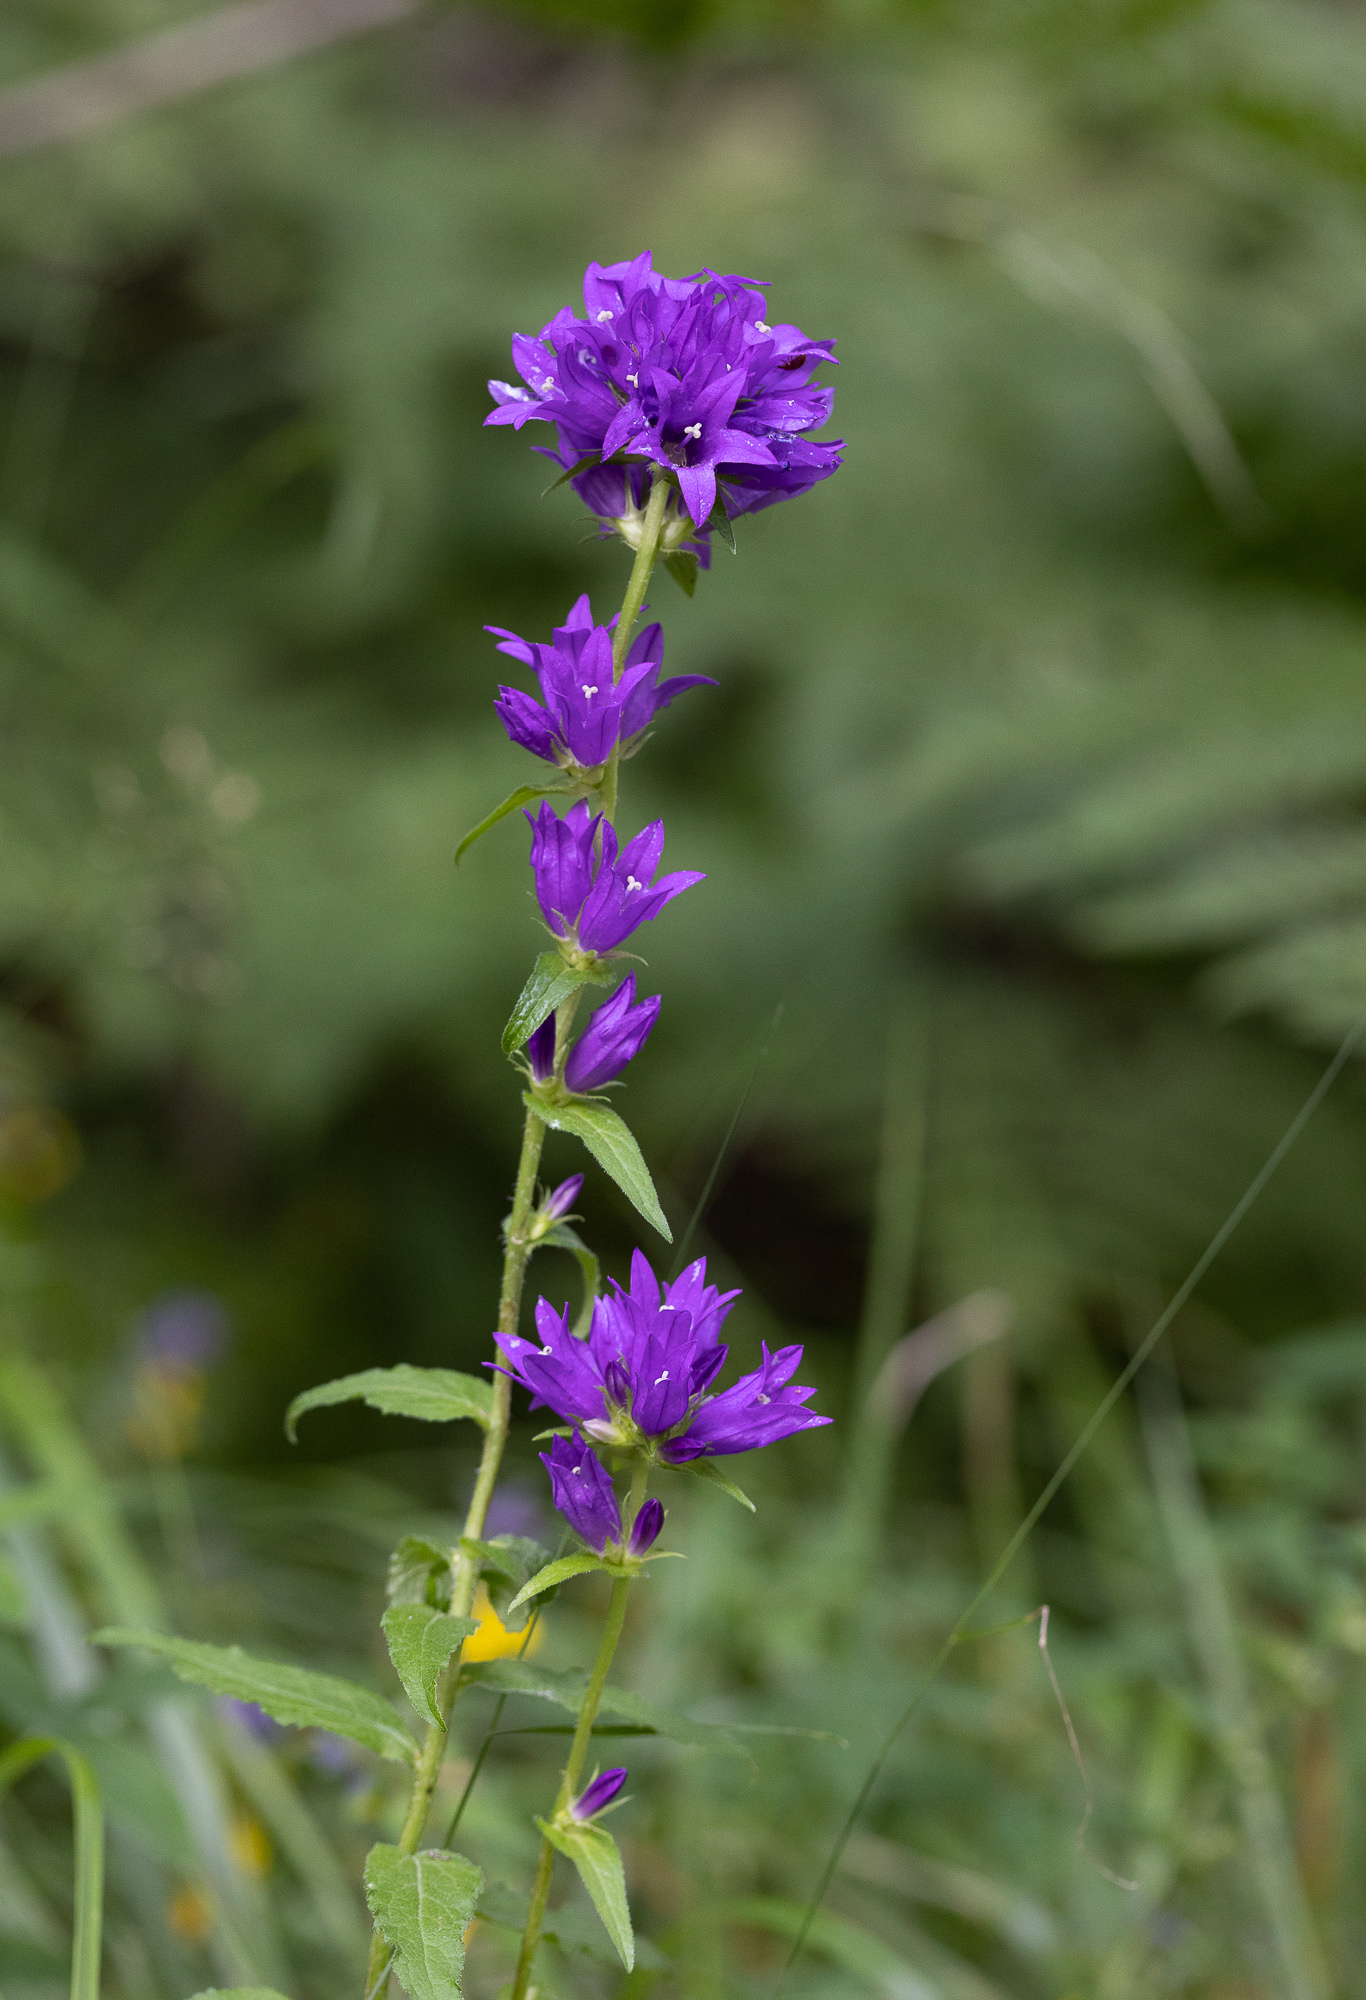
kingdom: Plantae
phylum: Tracheophyta
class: Magnoliopsida
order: Asterales
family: Campanulaceae
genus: Campanula
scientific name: Campanula glomerata
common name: Clustered bellflower
